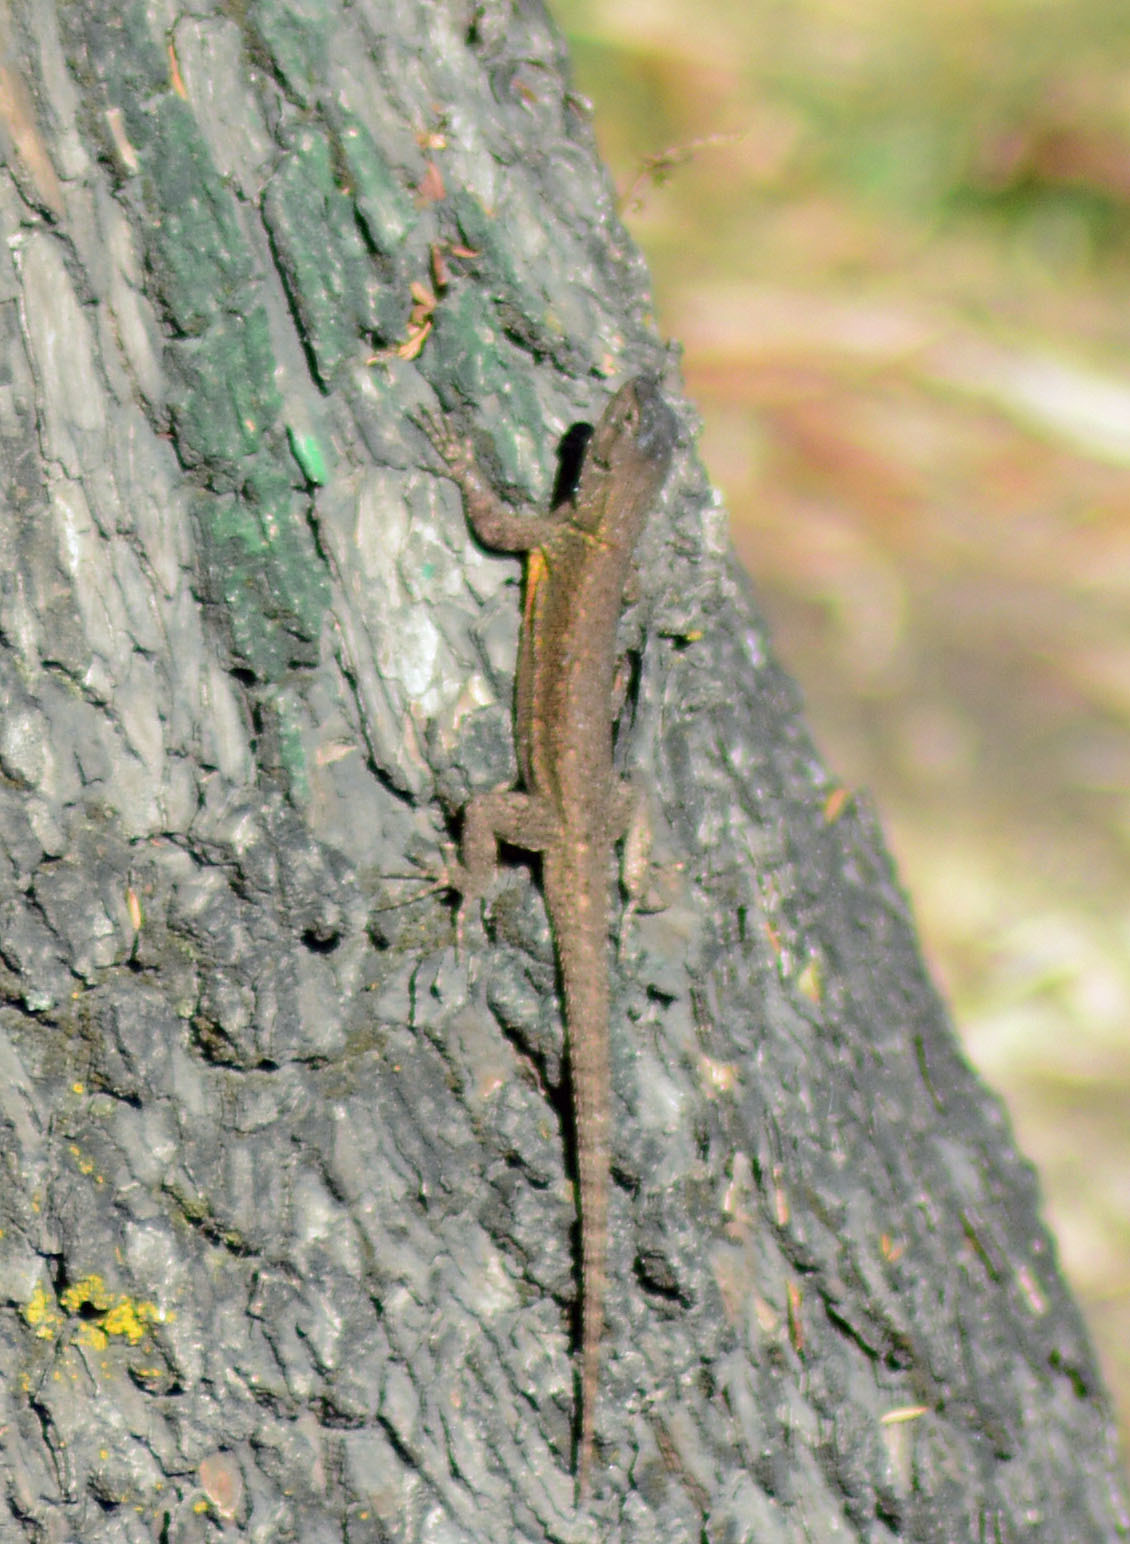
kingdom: Animalia
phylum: Chordata
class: Squamata
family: Phrynosomatidae
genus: Sceloporus
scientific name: Sceloporus grammicus
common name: Mesquite lizard
